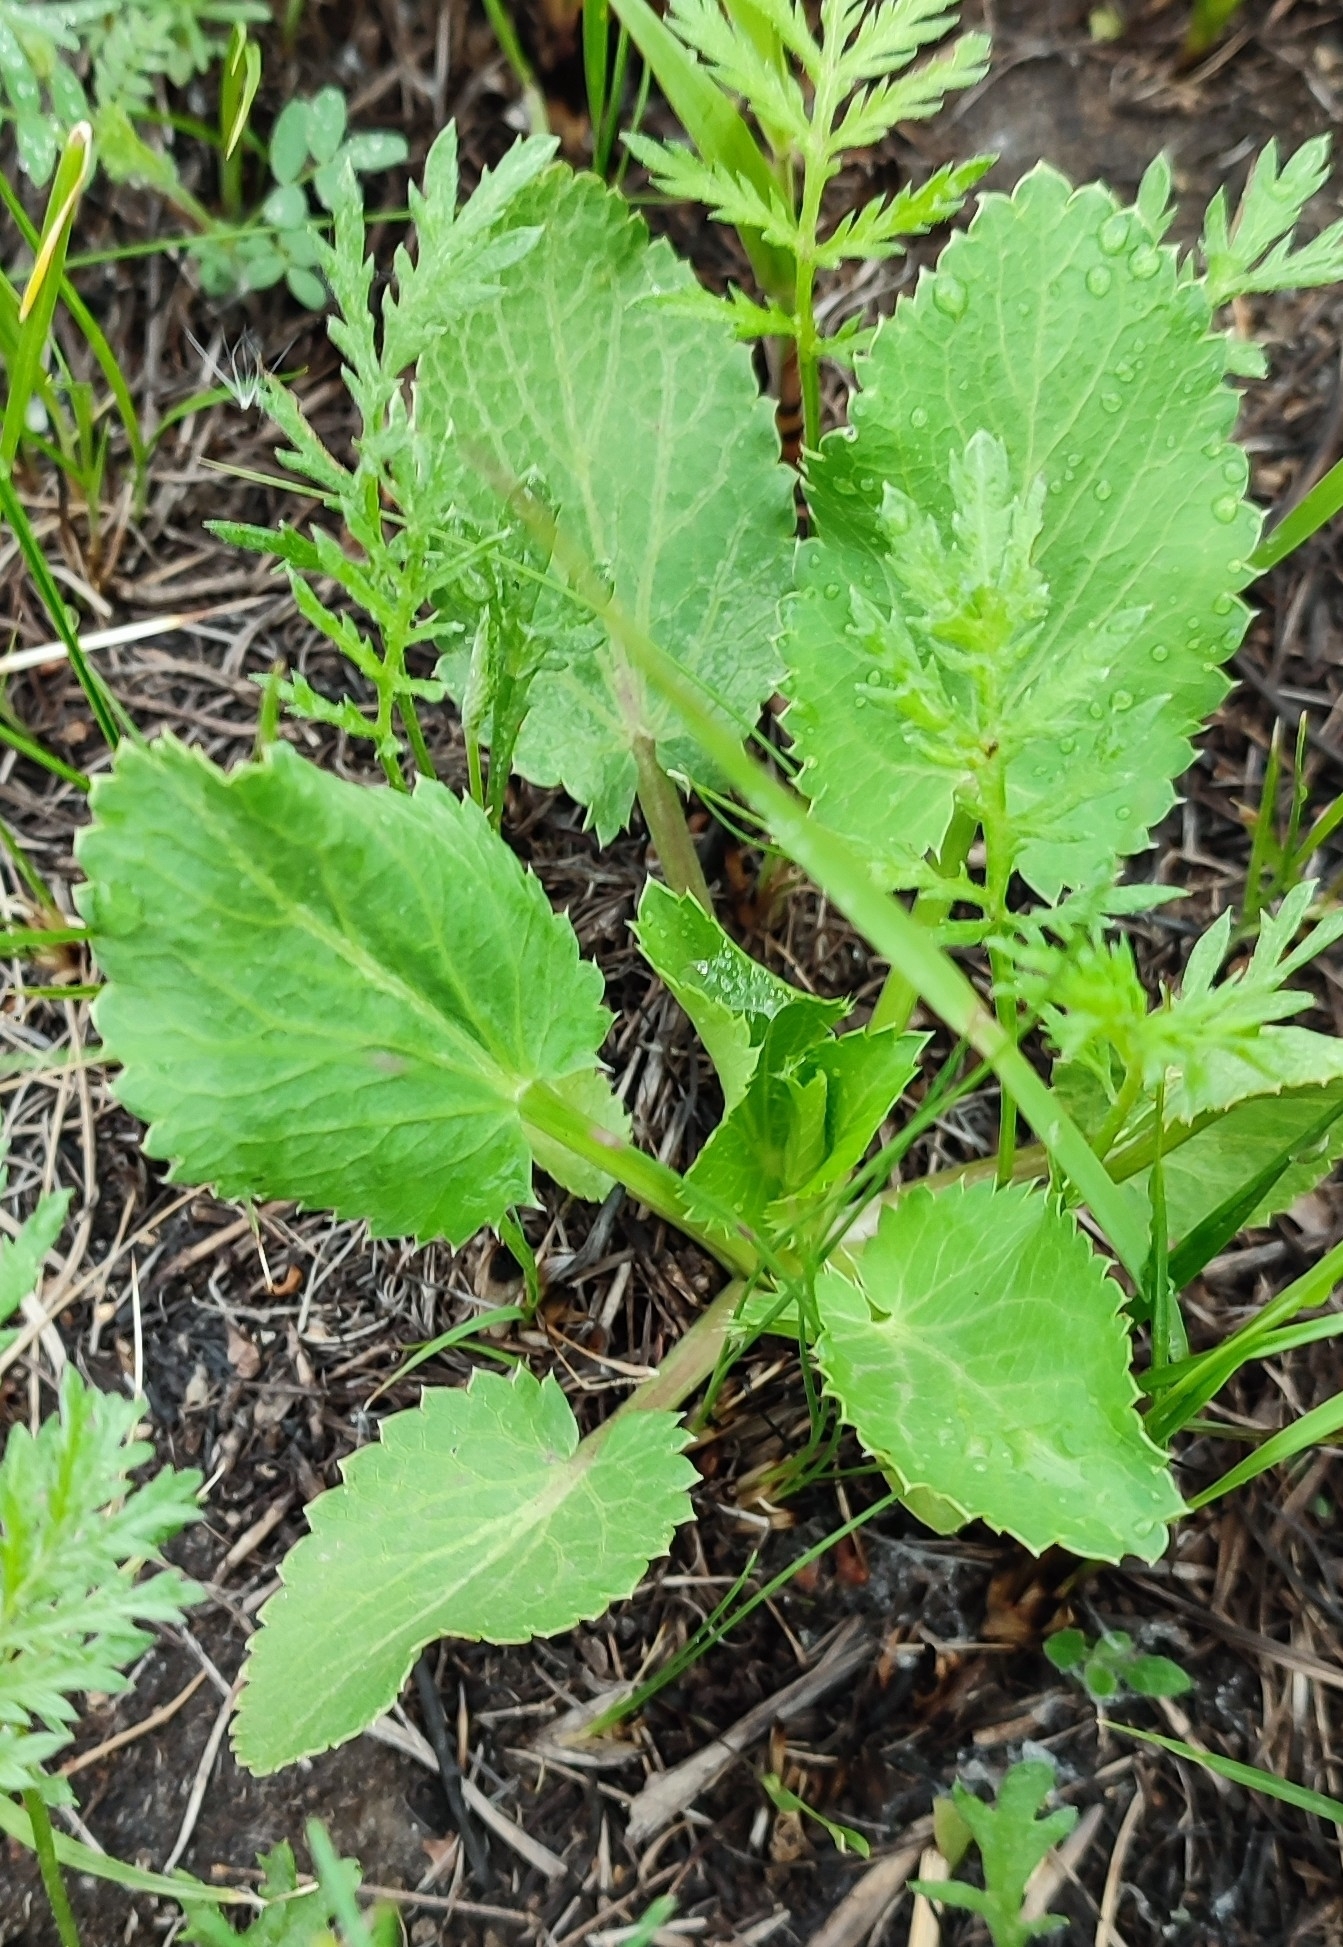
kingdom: Plantae
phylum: Tracheophyta
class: Magnoliopsida
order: Apiales
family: Apiaceae
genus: Eryngium
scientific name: Eryngium planum
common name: Blue eryngo
